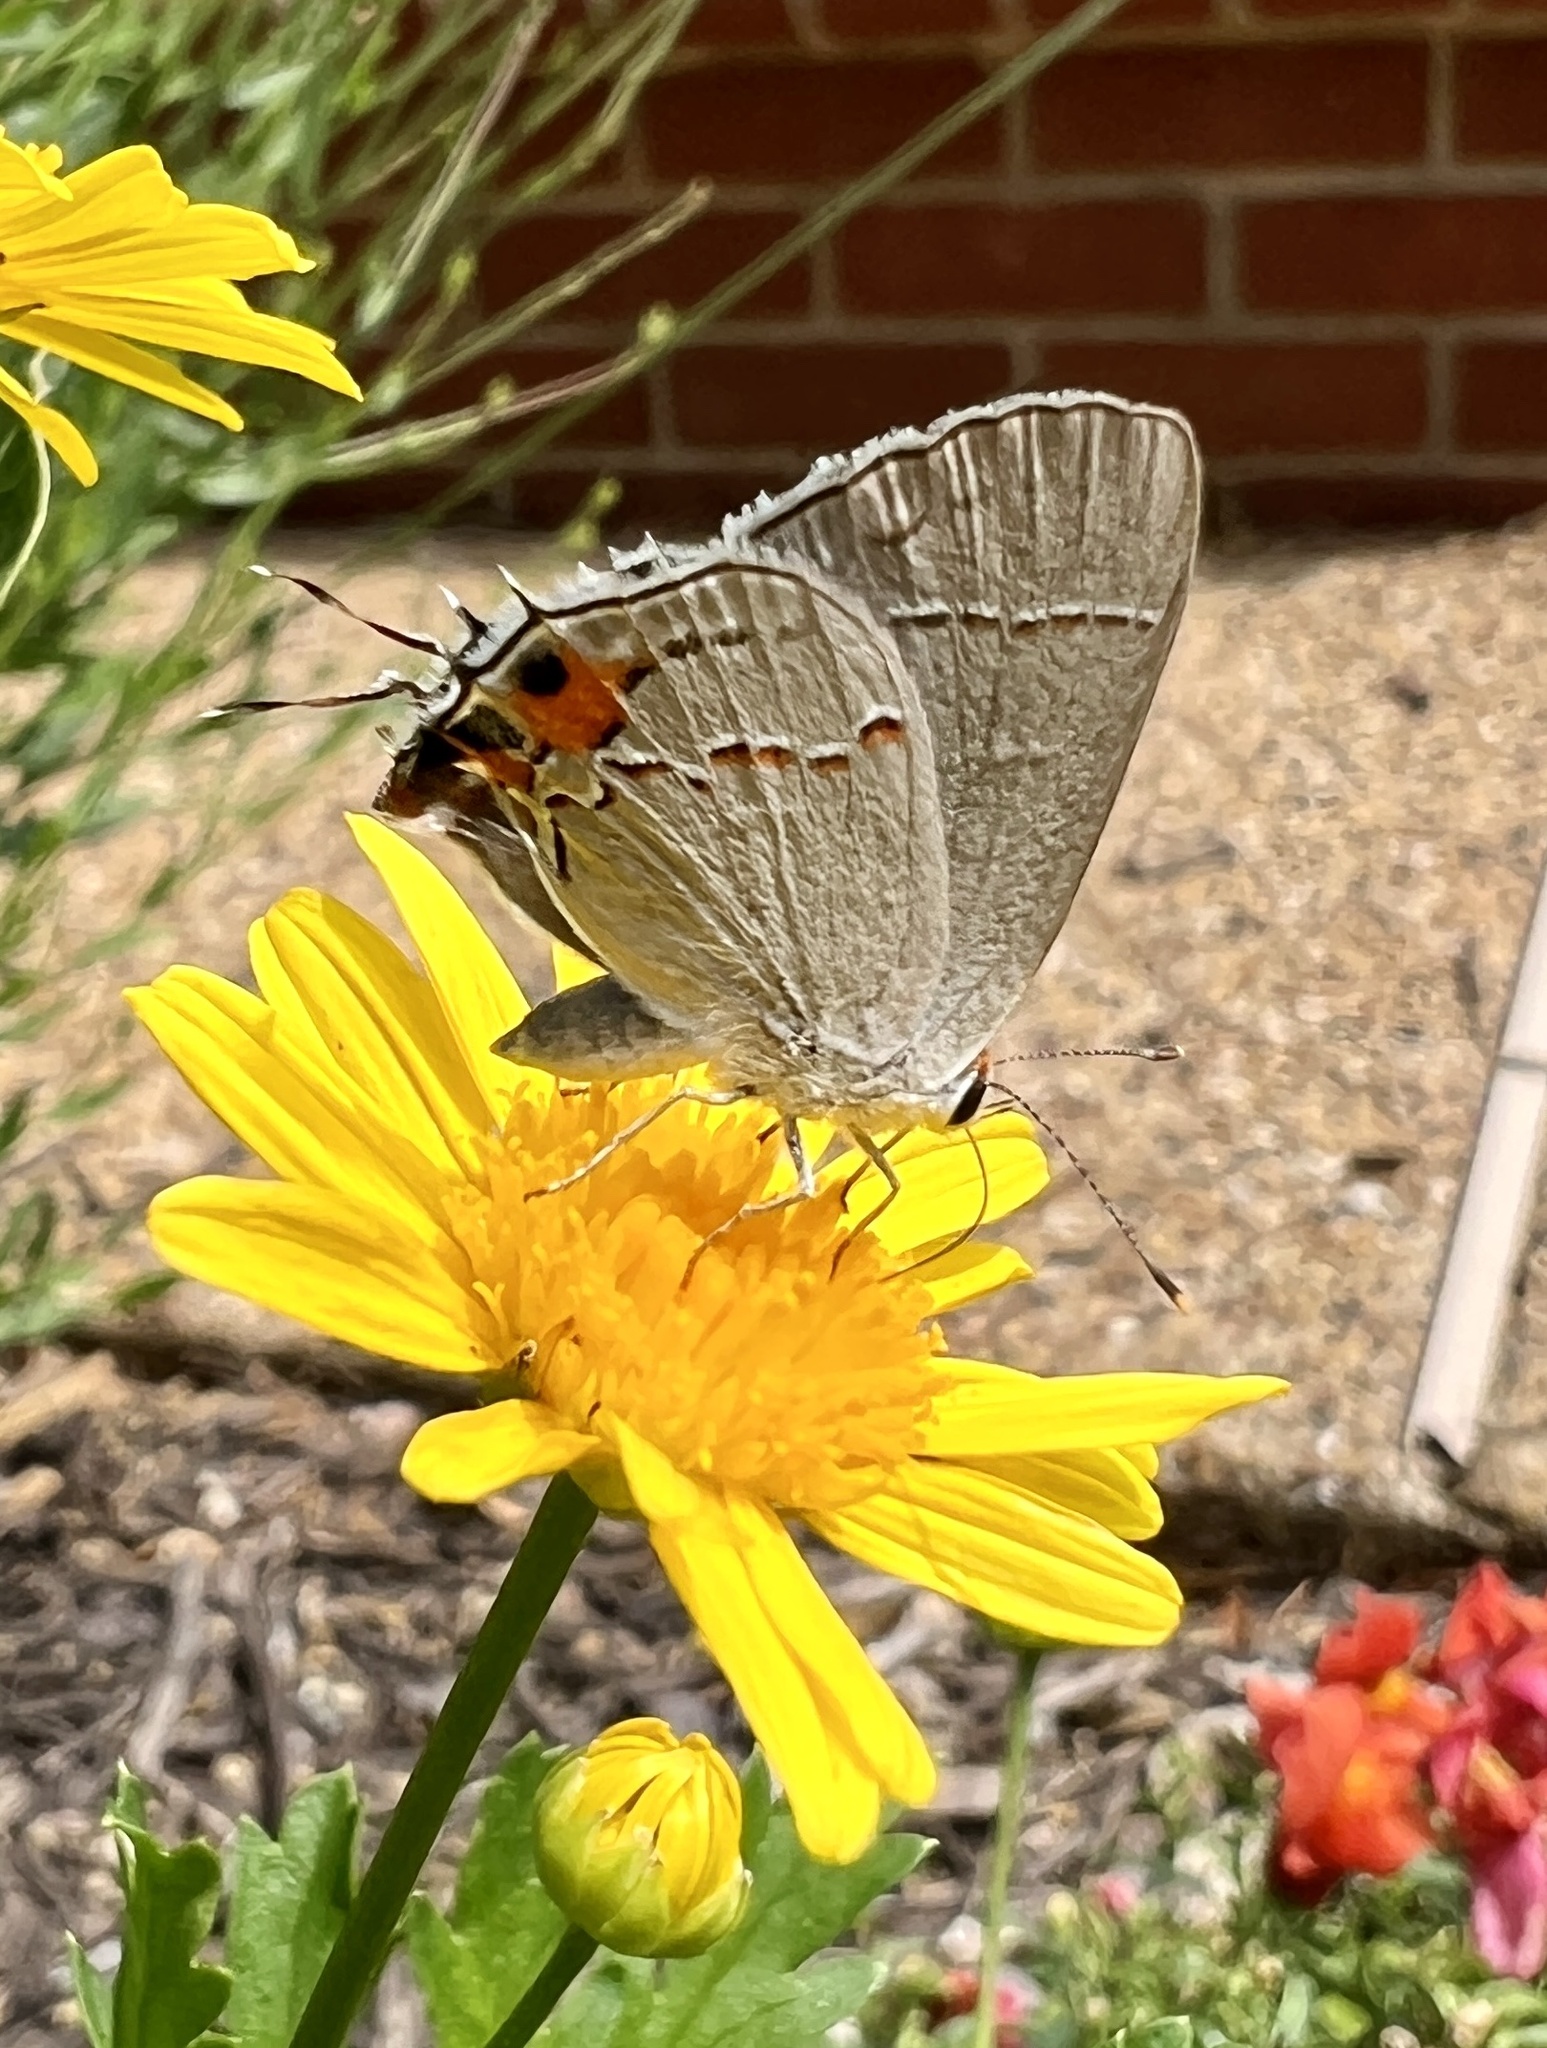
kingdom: Animalia
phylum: Arthropoda
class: Insecta
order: Lepidoptera
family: Lycaenidae
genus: Strymon
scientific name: Strymon melinus
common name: Gray hairstreak
